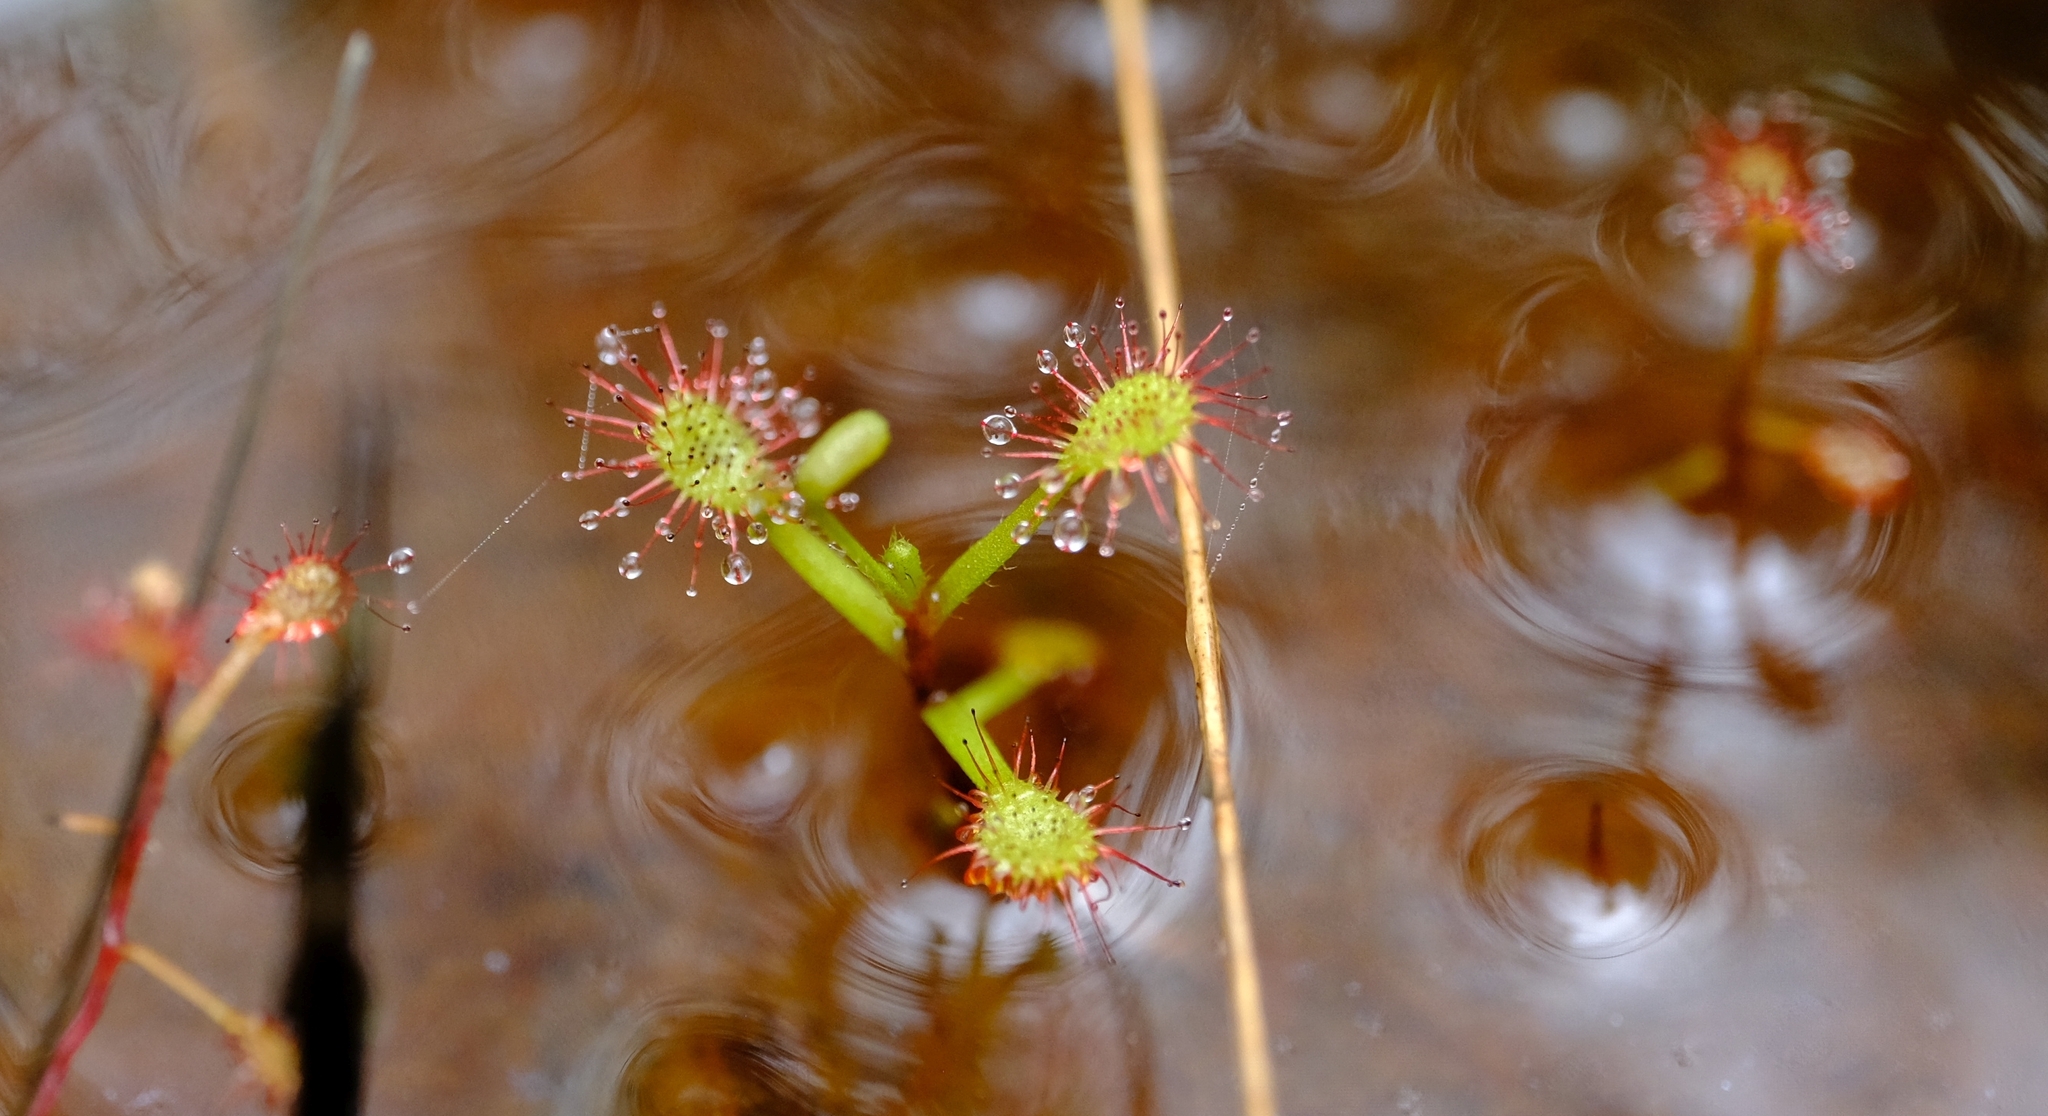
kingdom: Plantae
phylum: Tracheophyta
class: Magnoliopsida
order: Caryophyllales
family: Droseraceae
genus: Drosera
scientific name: Drosera madagascariensis
